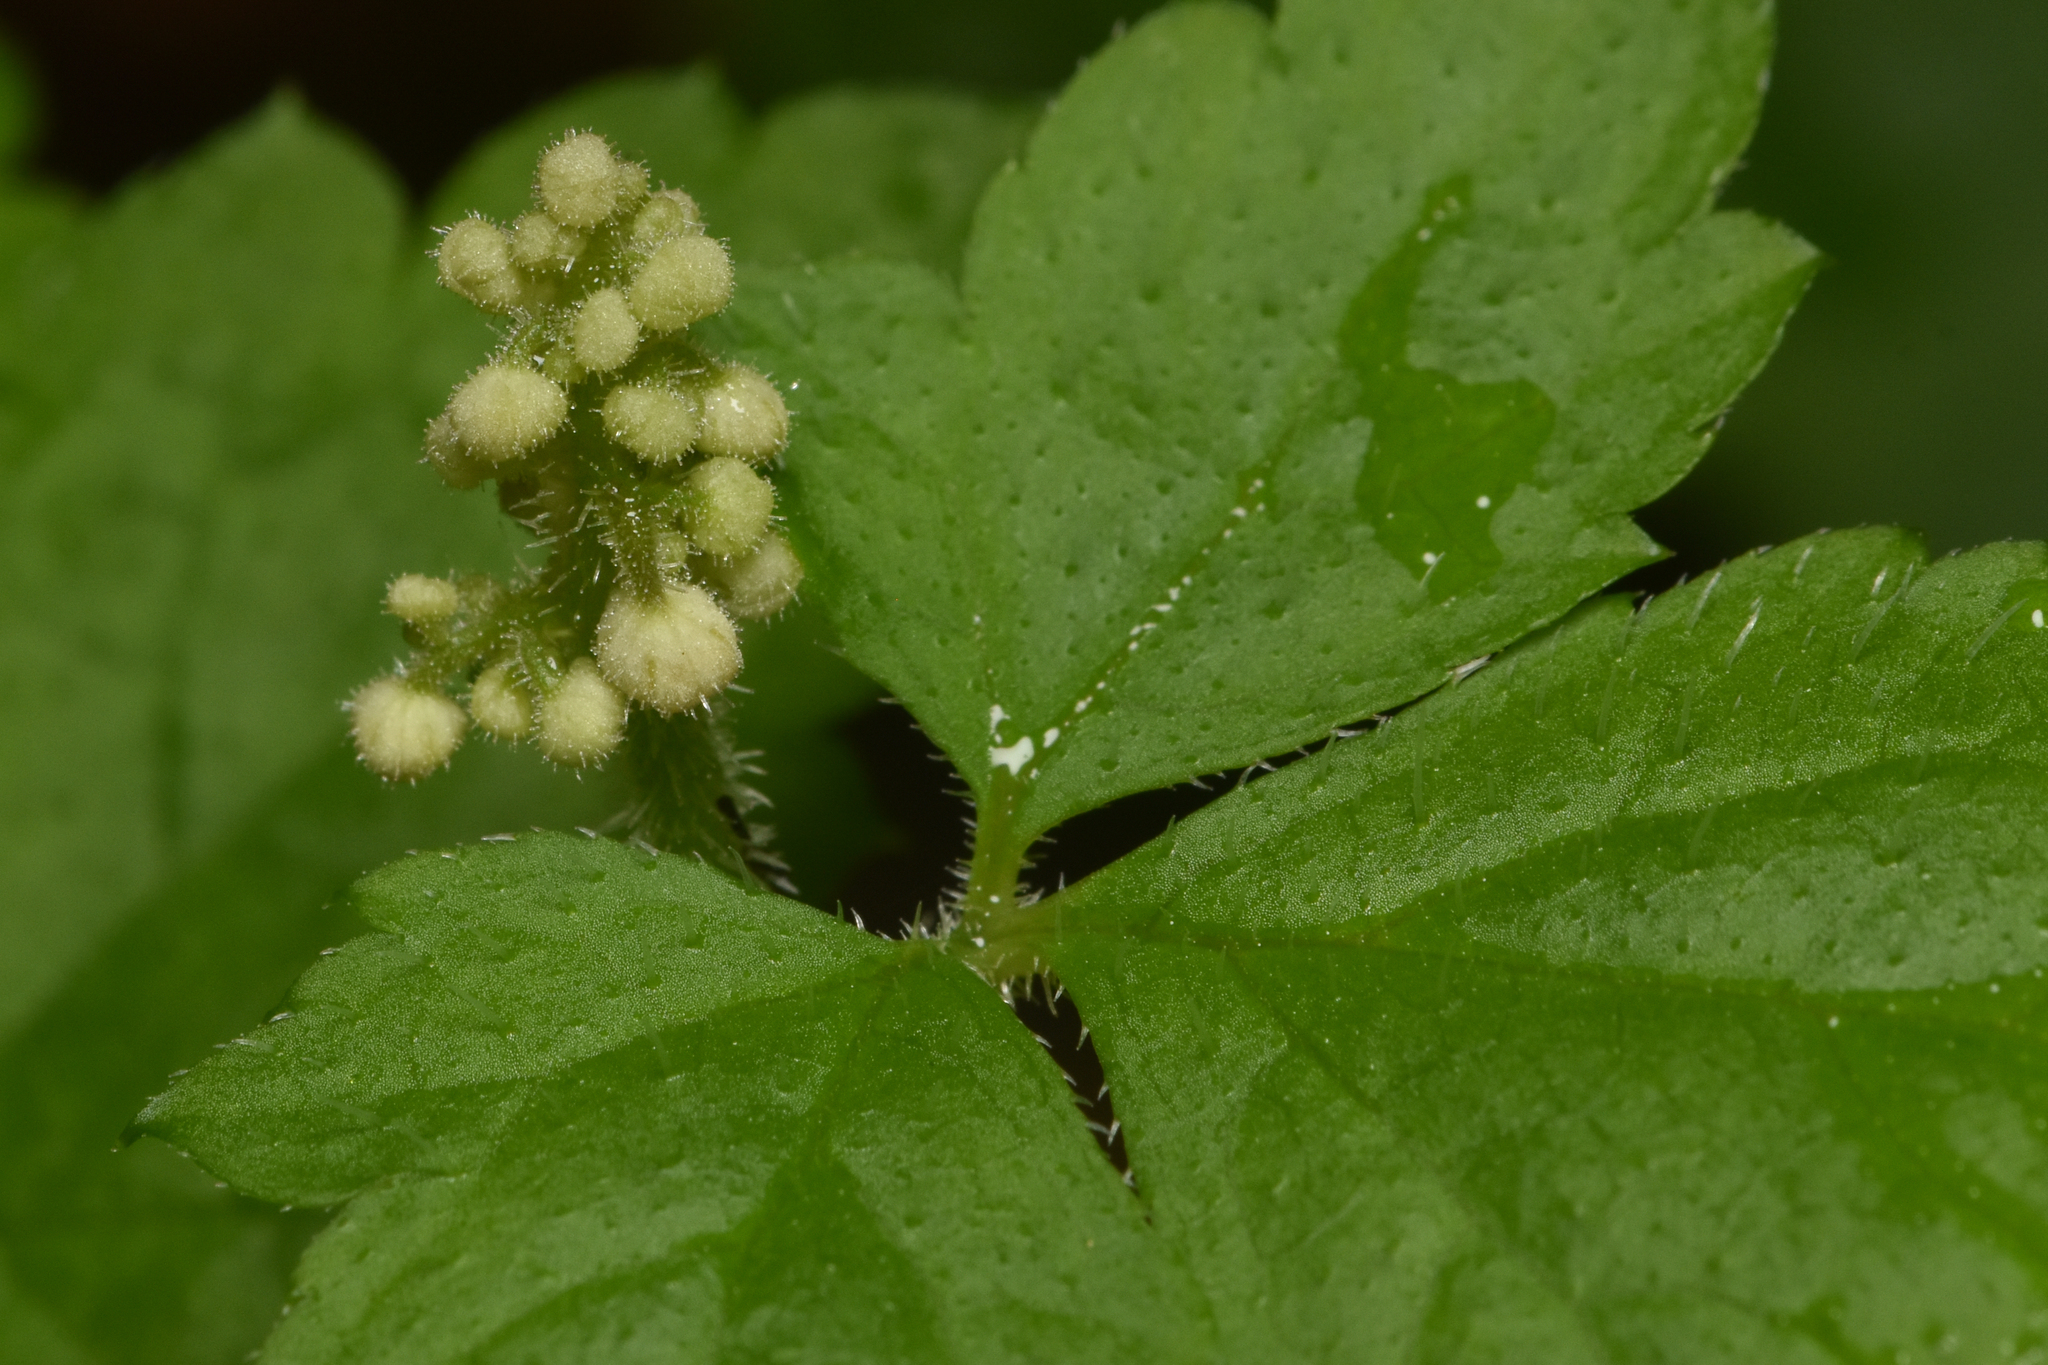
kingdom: Plantae
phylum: Tracheophyta
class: Magnoliopsida
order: Saxifragales
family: Saxifragaceae
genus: Tiarella
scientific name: Tiarella trifoliata
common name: Sugar-scoop
